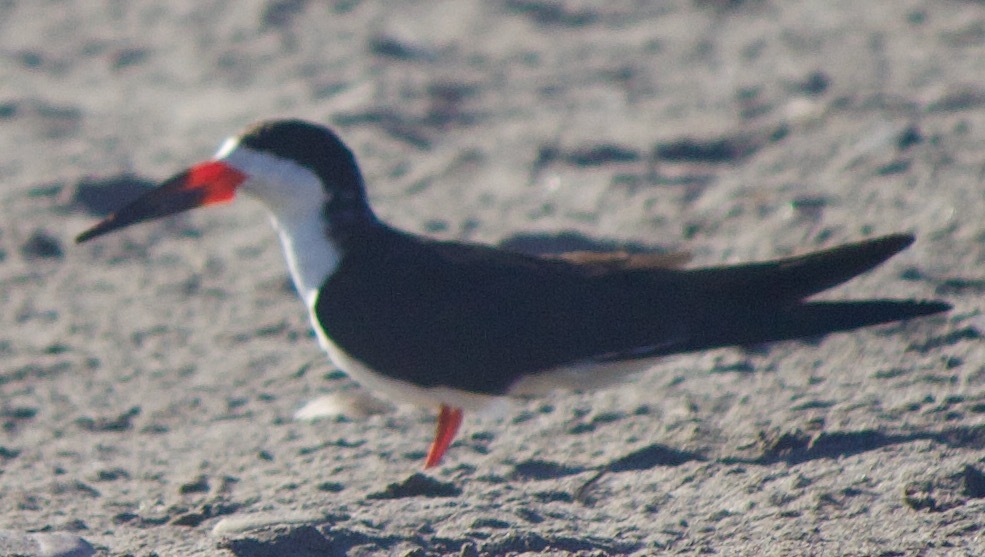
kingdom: Animalia
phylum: Chordata
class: Aves
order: Charadriiformes
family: Laridae
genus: Rynchops
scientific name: Rynchops niger
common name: Black skimmer
